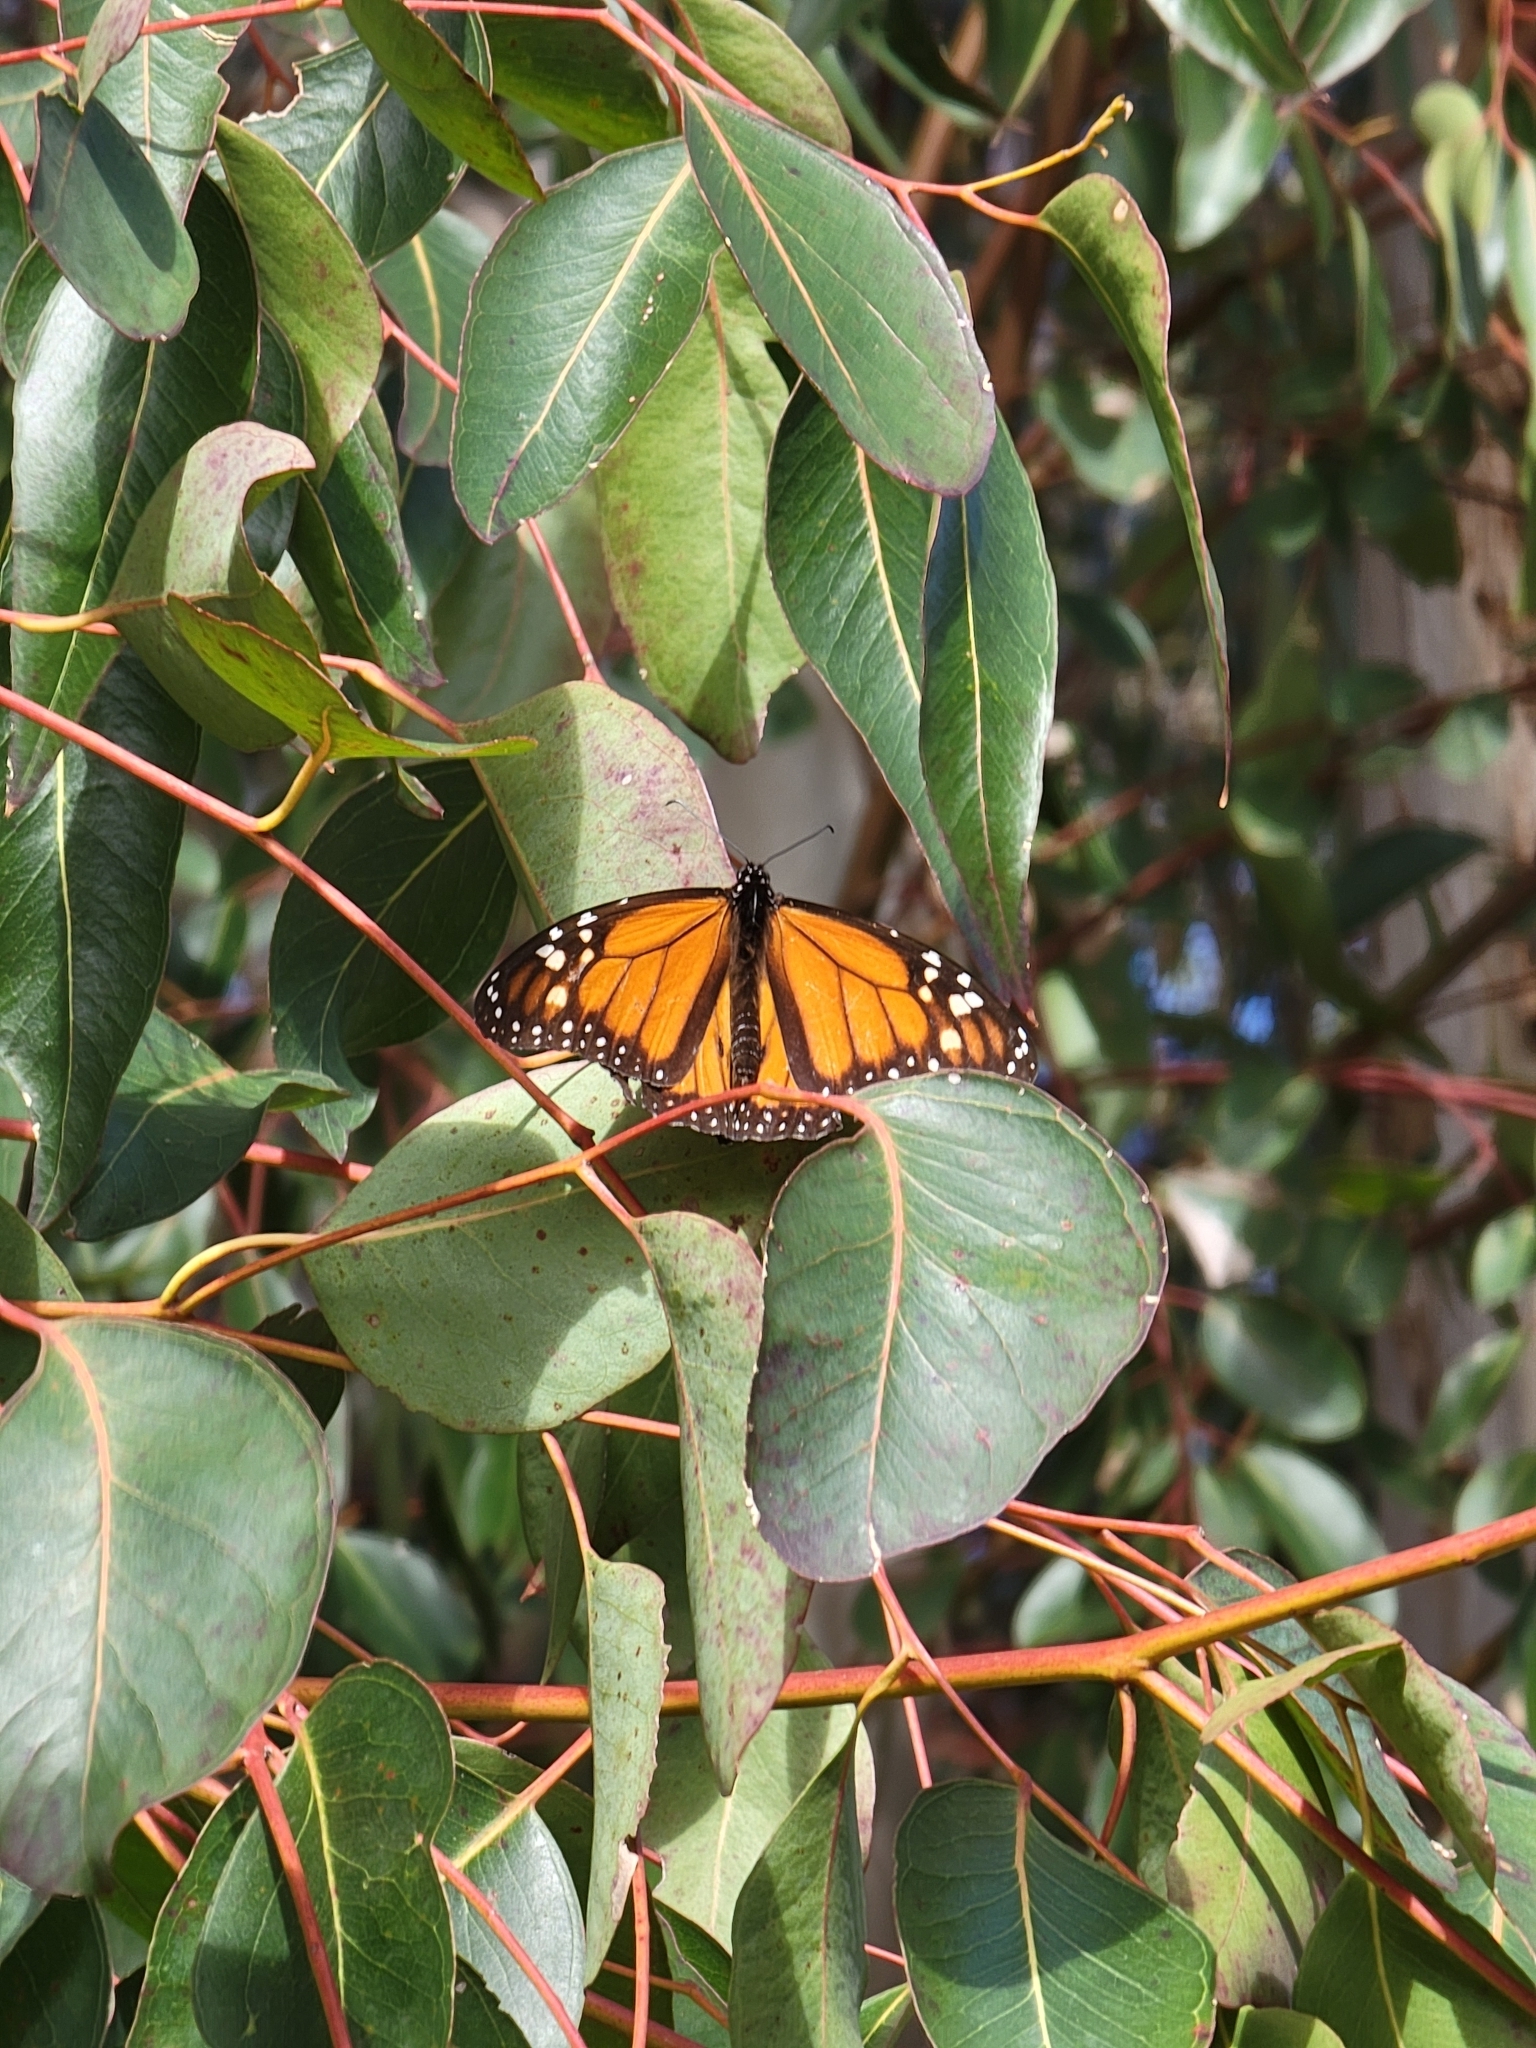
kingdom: Animalia
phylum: Arthropoda
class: Insecta
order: Lepidoptera
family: Nymphalidae
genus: Danaus
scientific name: Danaus plexippus
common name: Monarch
